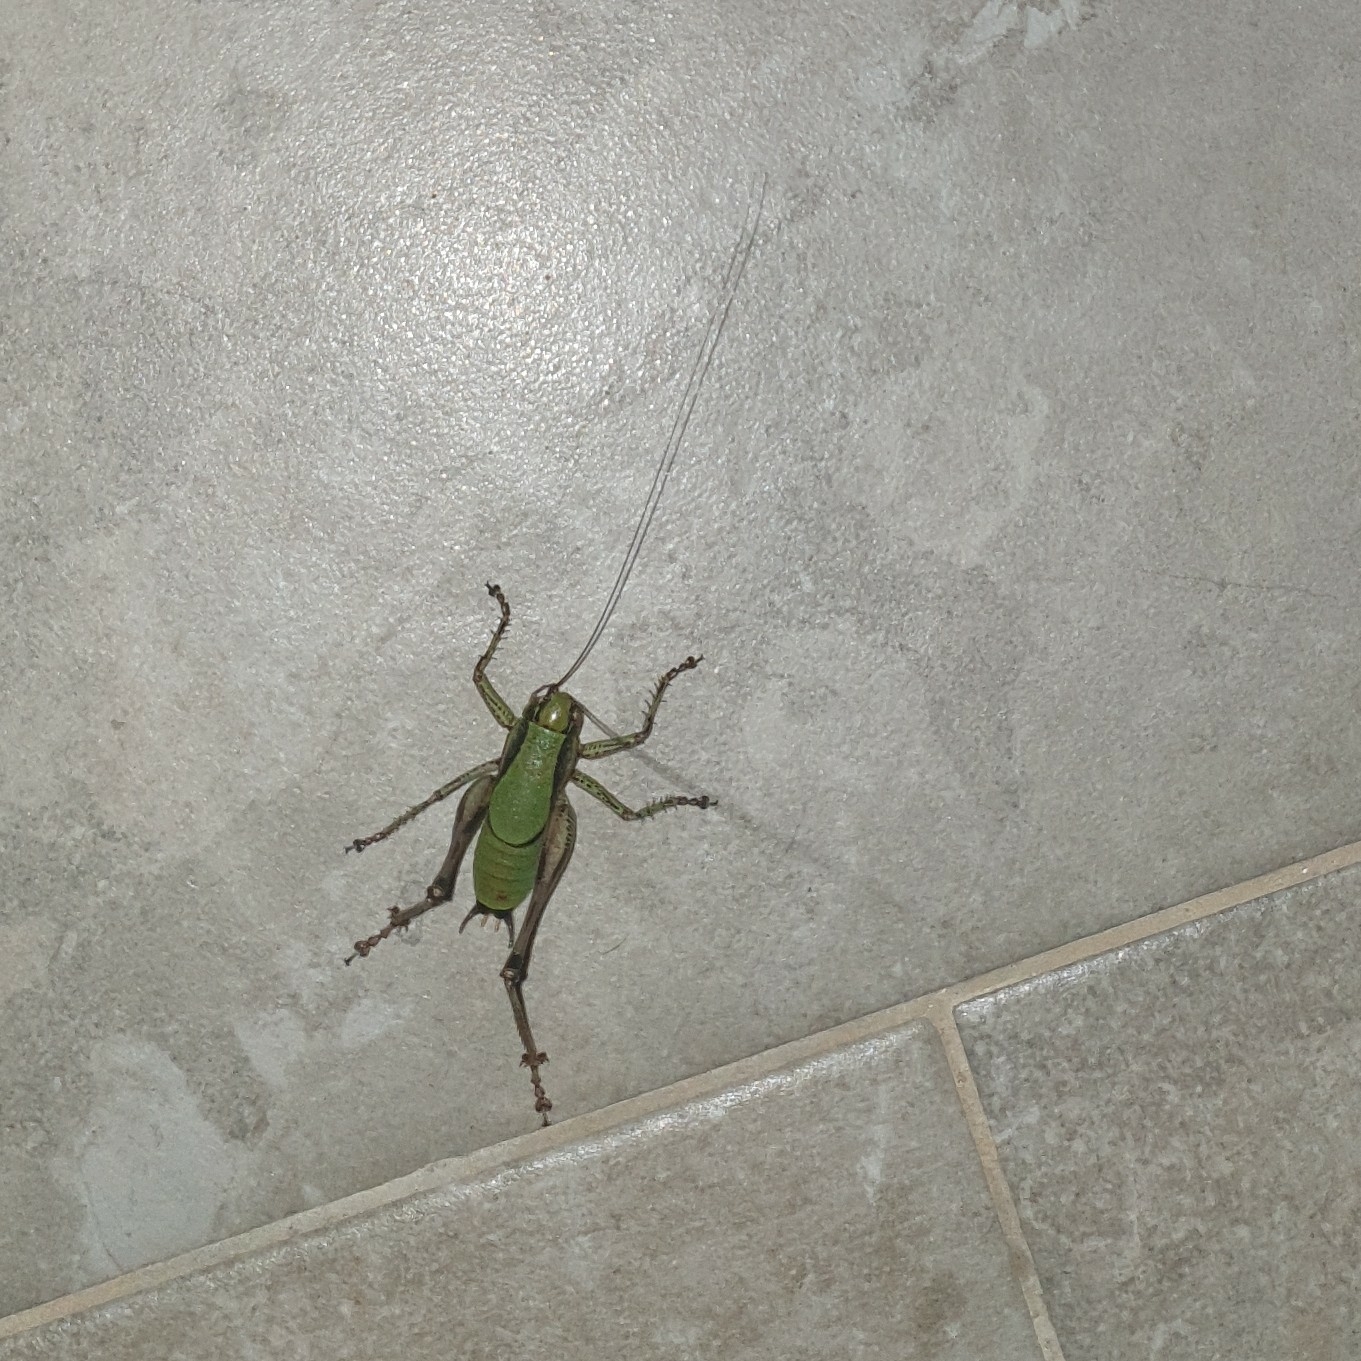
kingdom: Animalia
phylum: Arthropoda
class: Insecta
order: Orthoptera
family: Tettigoniidae
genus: Eupholidoptera
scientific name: Eupholidoptera schmidti
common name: Schmidt's marbled bush-cricket
